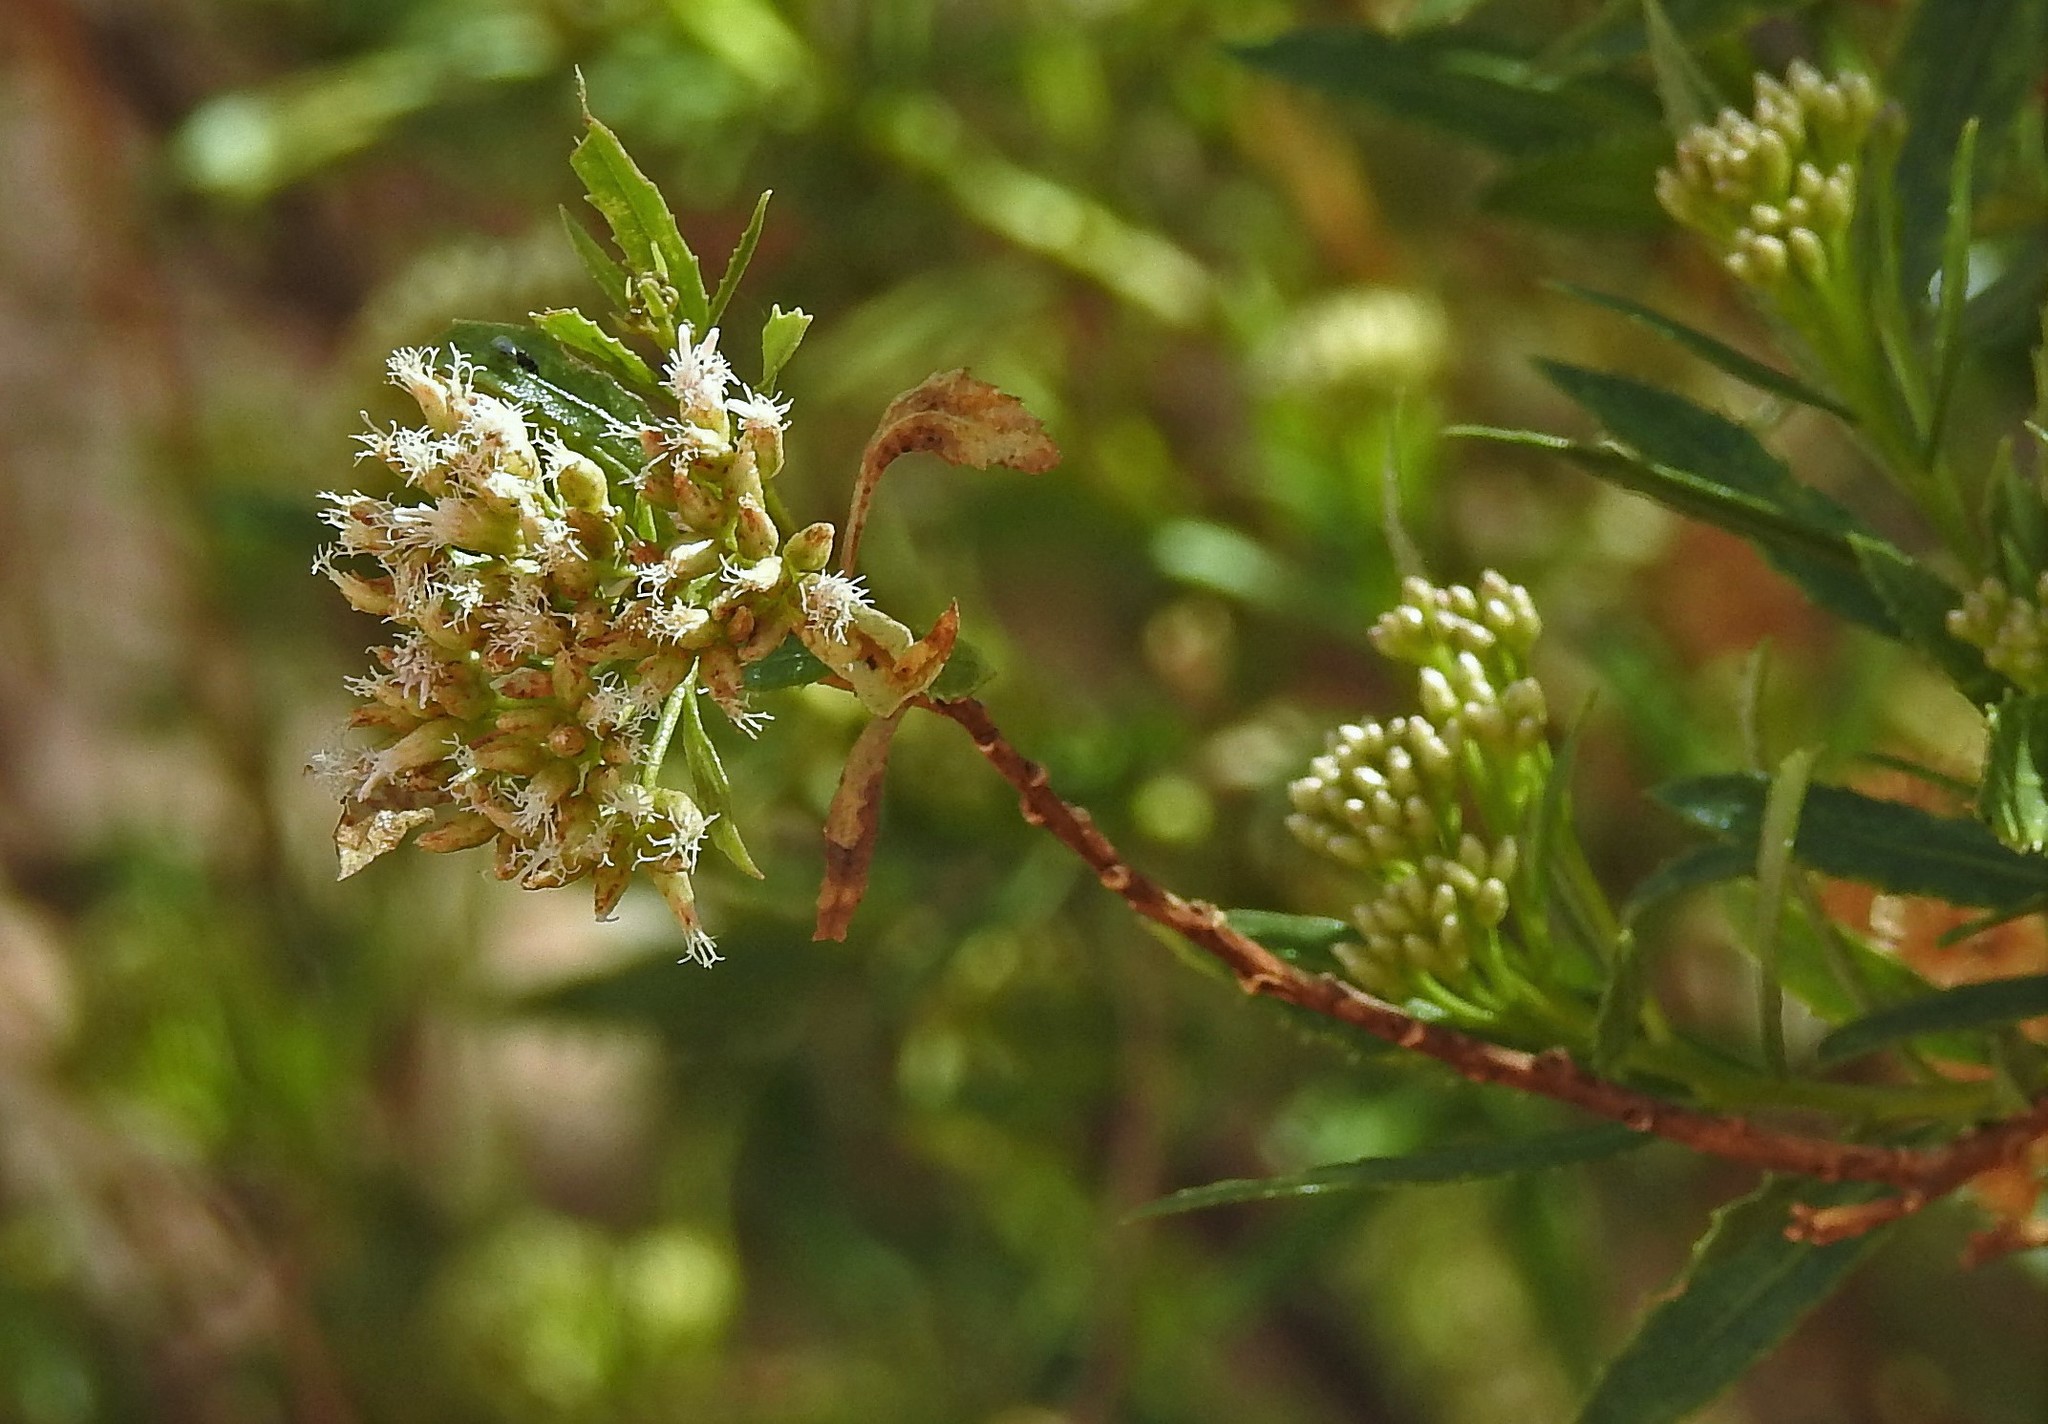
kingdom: Plantae
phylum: Tracheophyta
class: Magnoliopsida
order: Asterales
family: Asteraceae
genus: Tessaria
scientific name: Tessaria dodonaeifolia
